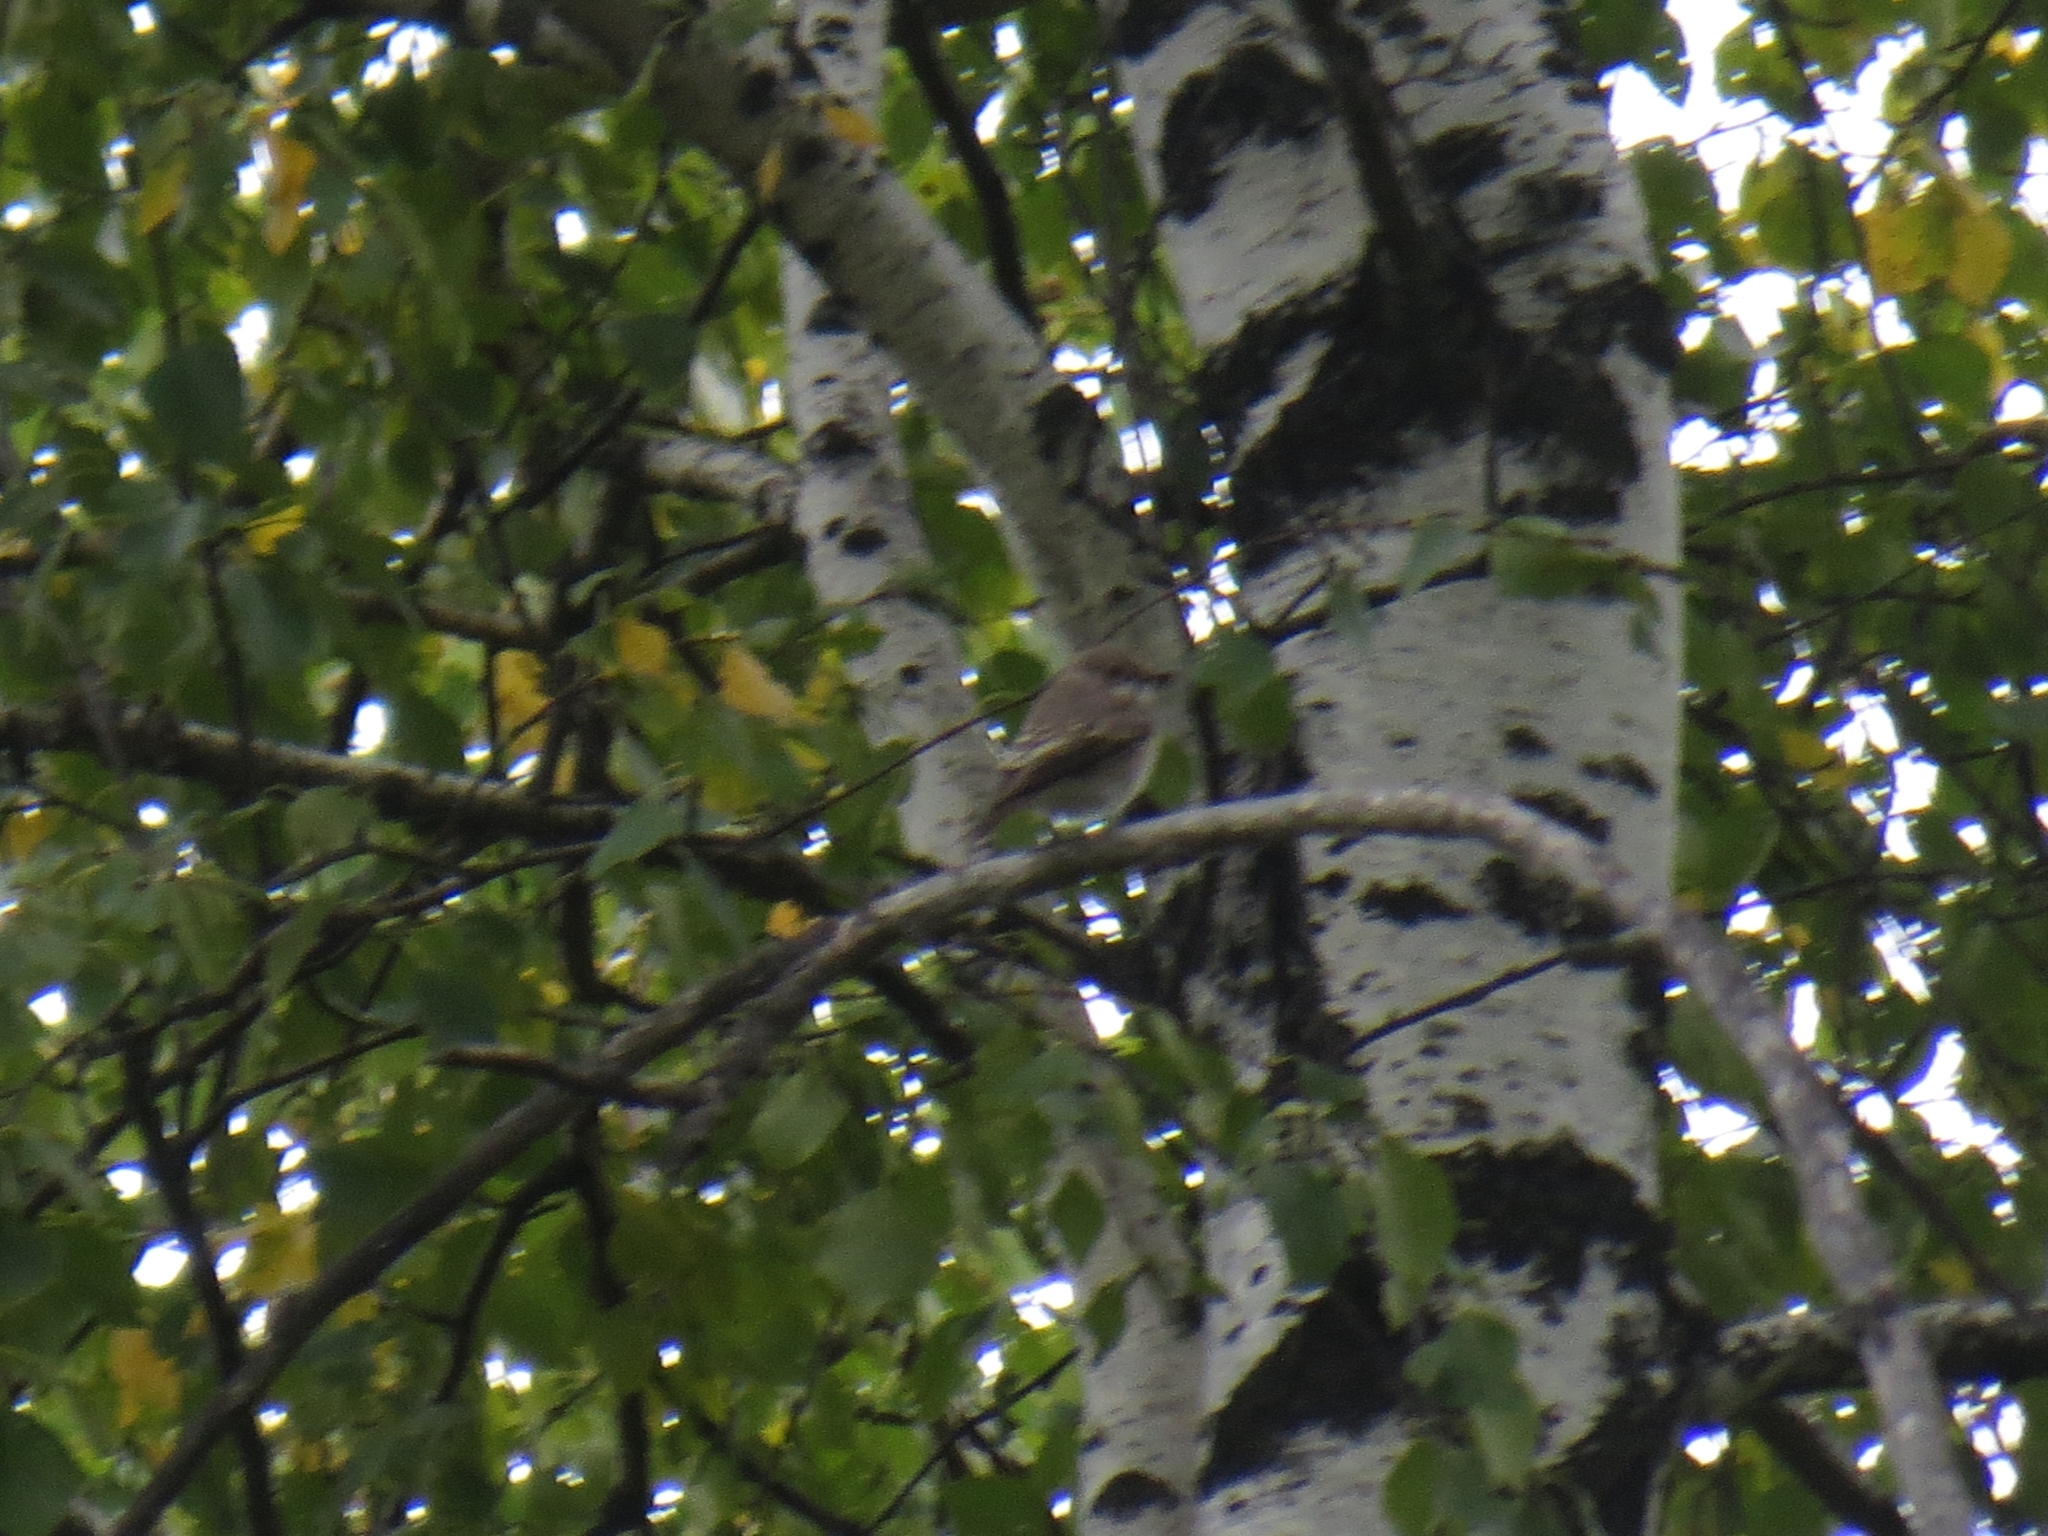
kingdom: Animalia
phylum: Chordata
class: Aves
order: Passeriformes
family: Muscicapidae
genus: Muscicapa
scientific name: Muscicapa striata
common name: Spotted flycatcher
